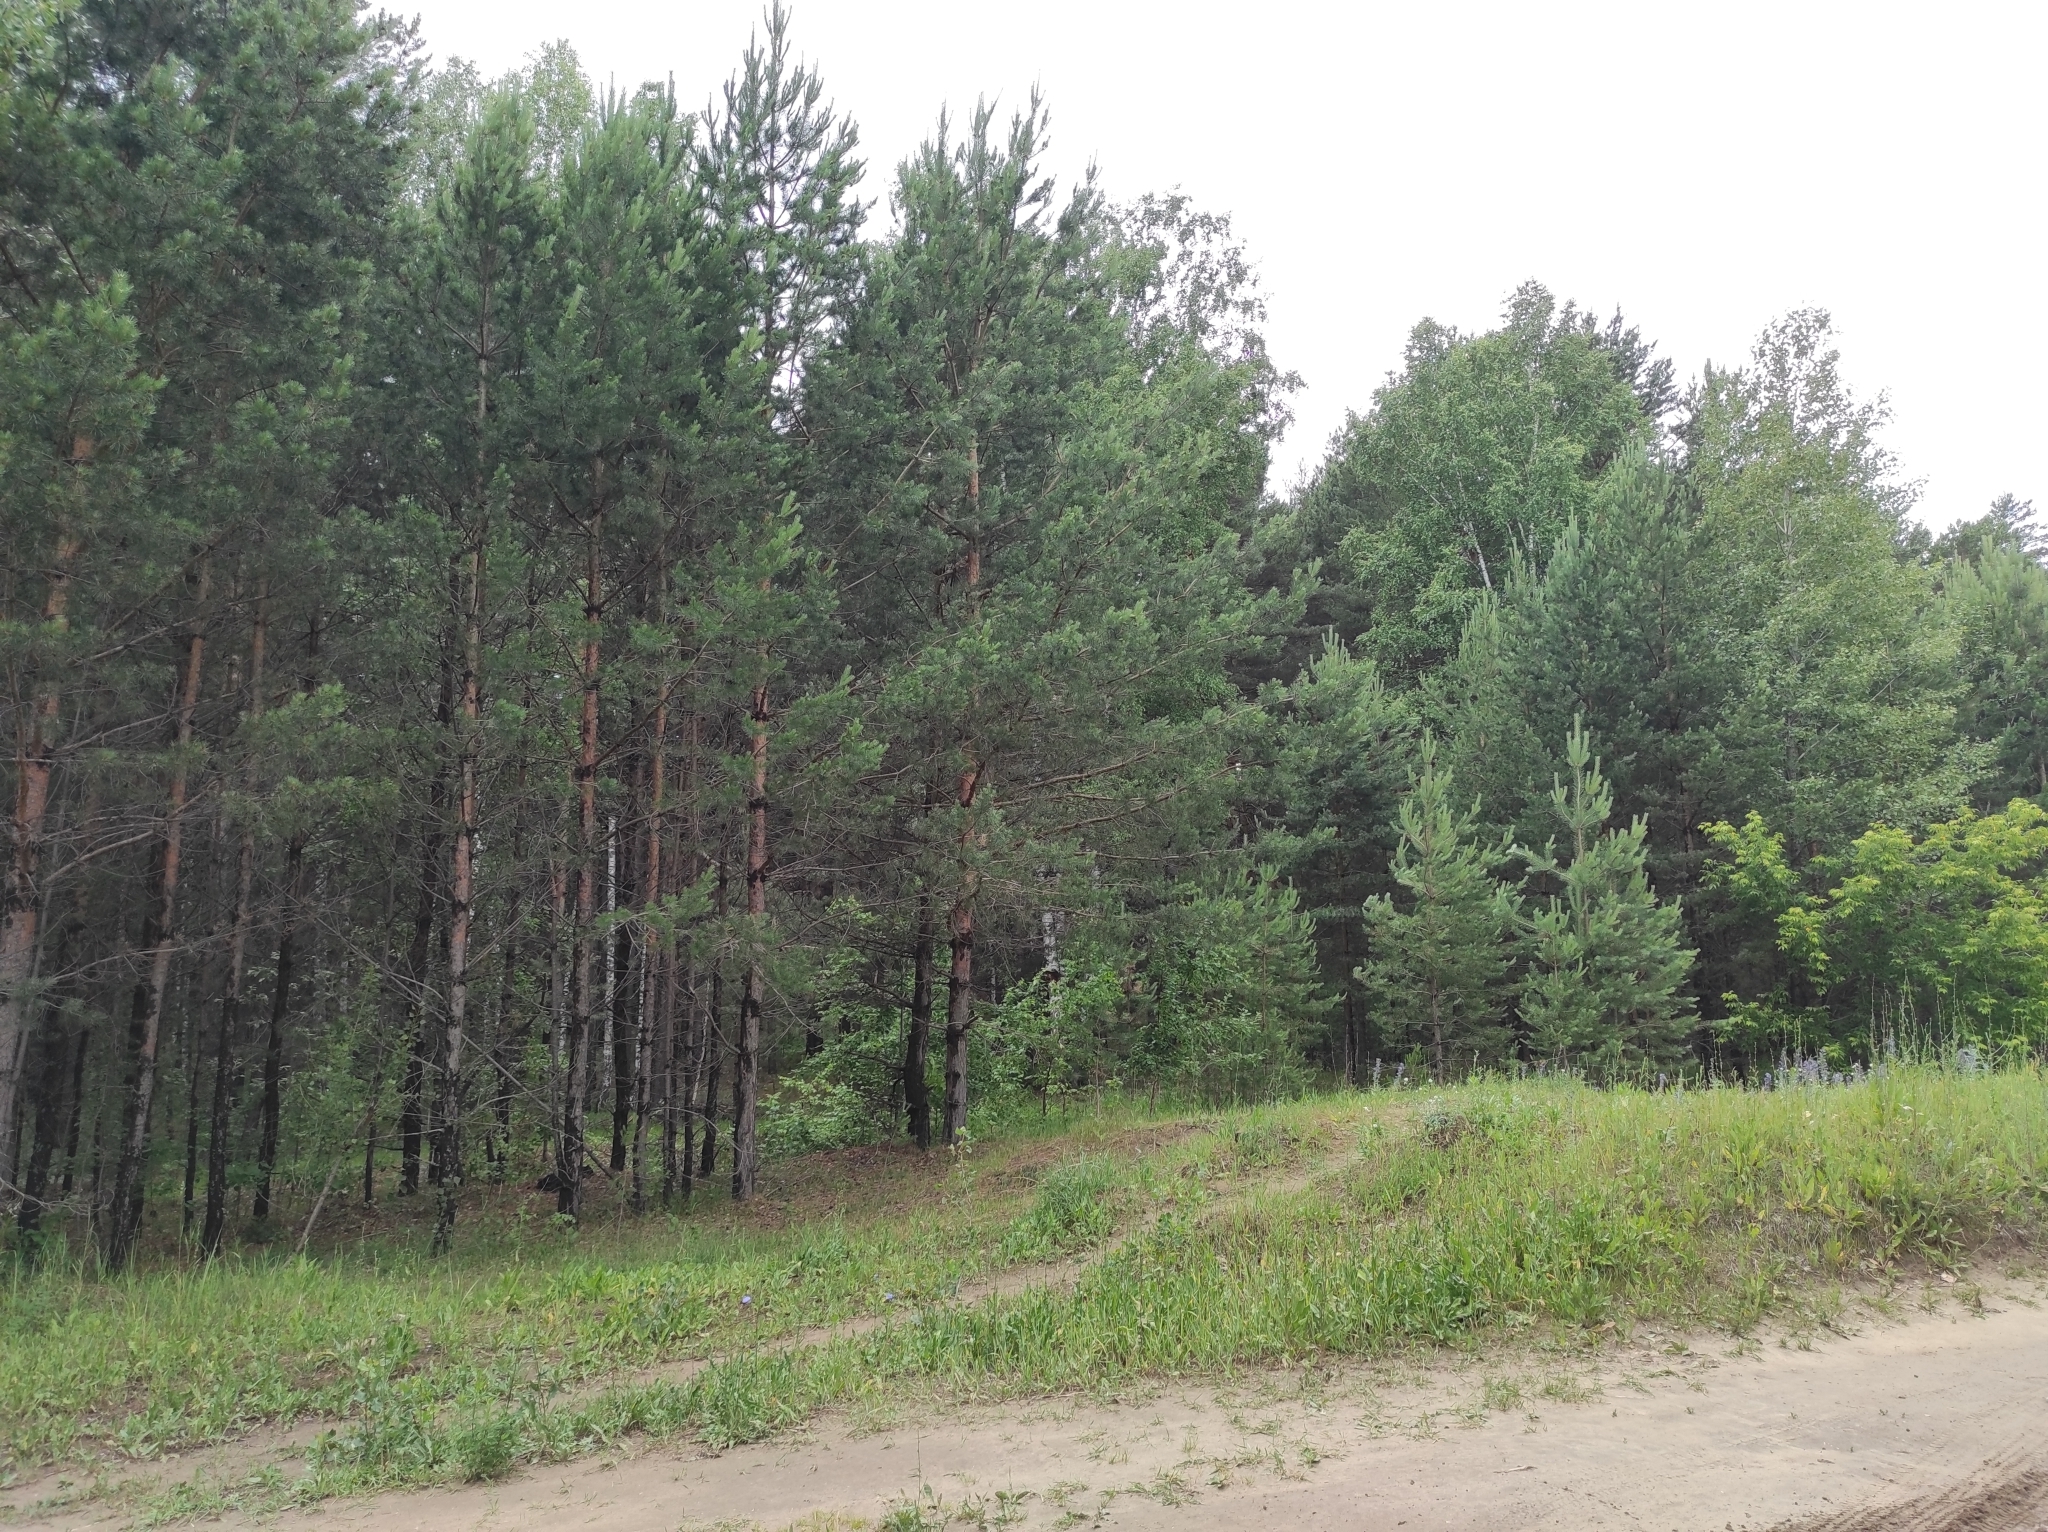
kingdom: Plantae
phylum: Tracheophyta
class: Pinopsida
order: Pinales
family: Pinaceae
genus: Pinus
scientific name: Pinus sylvestris
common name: Scots pine
